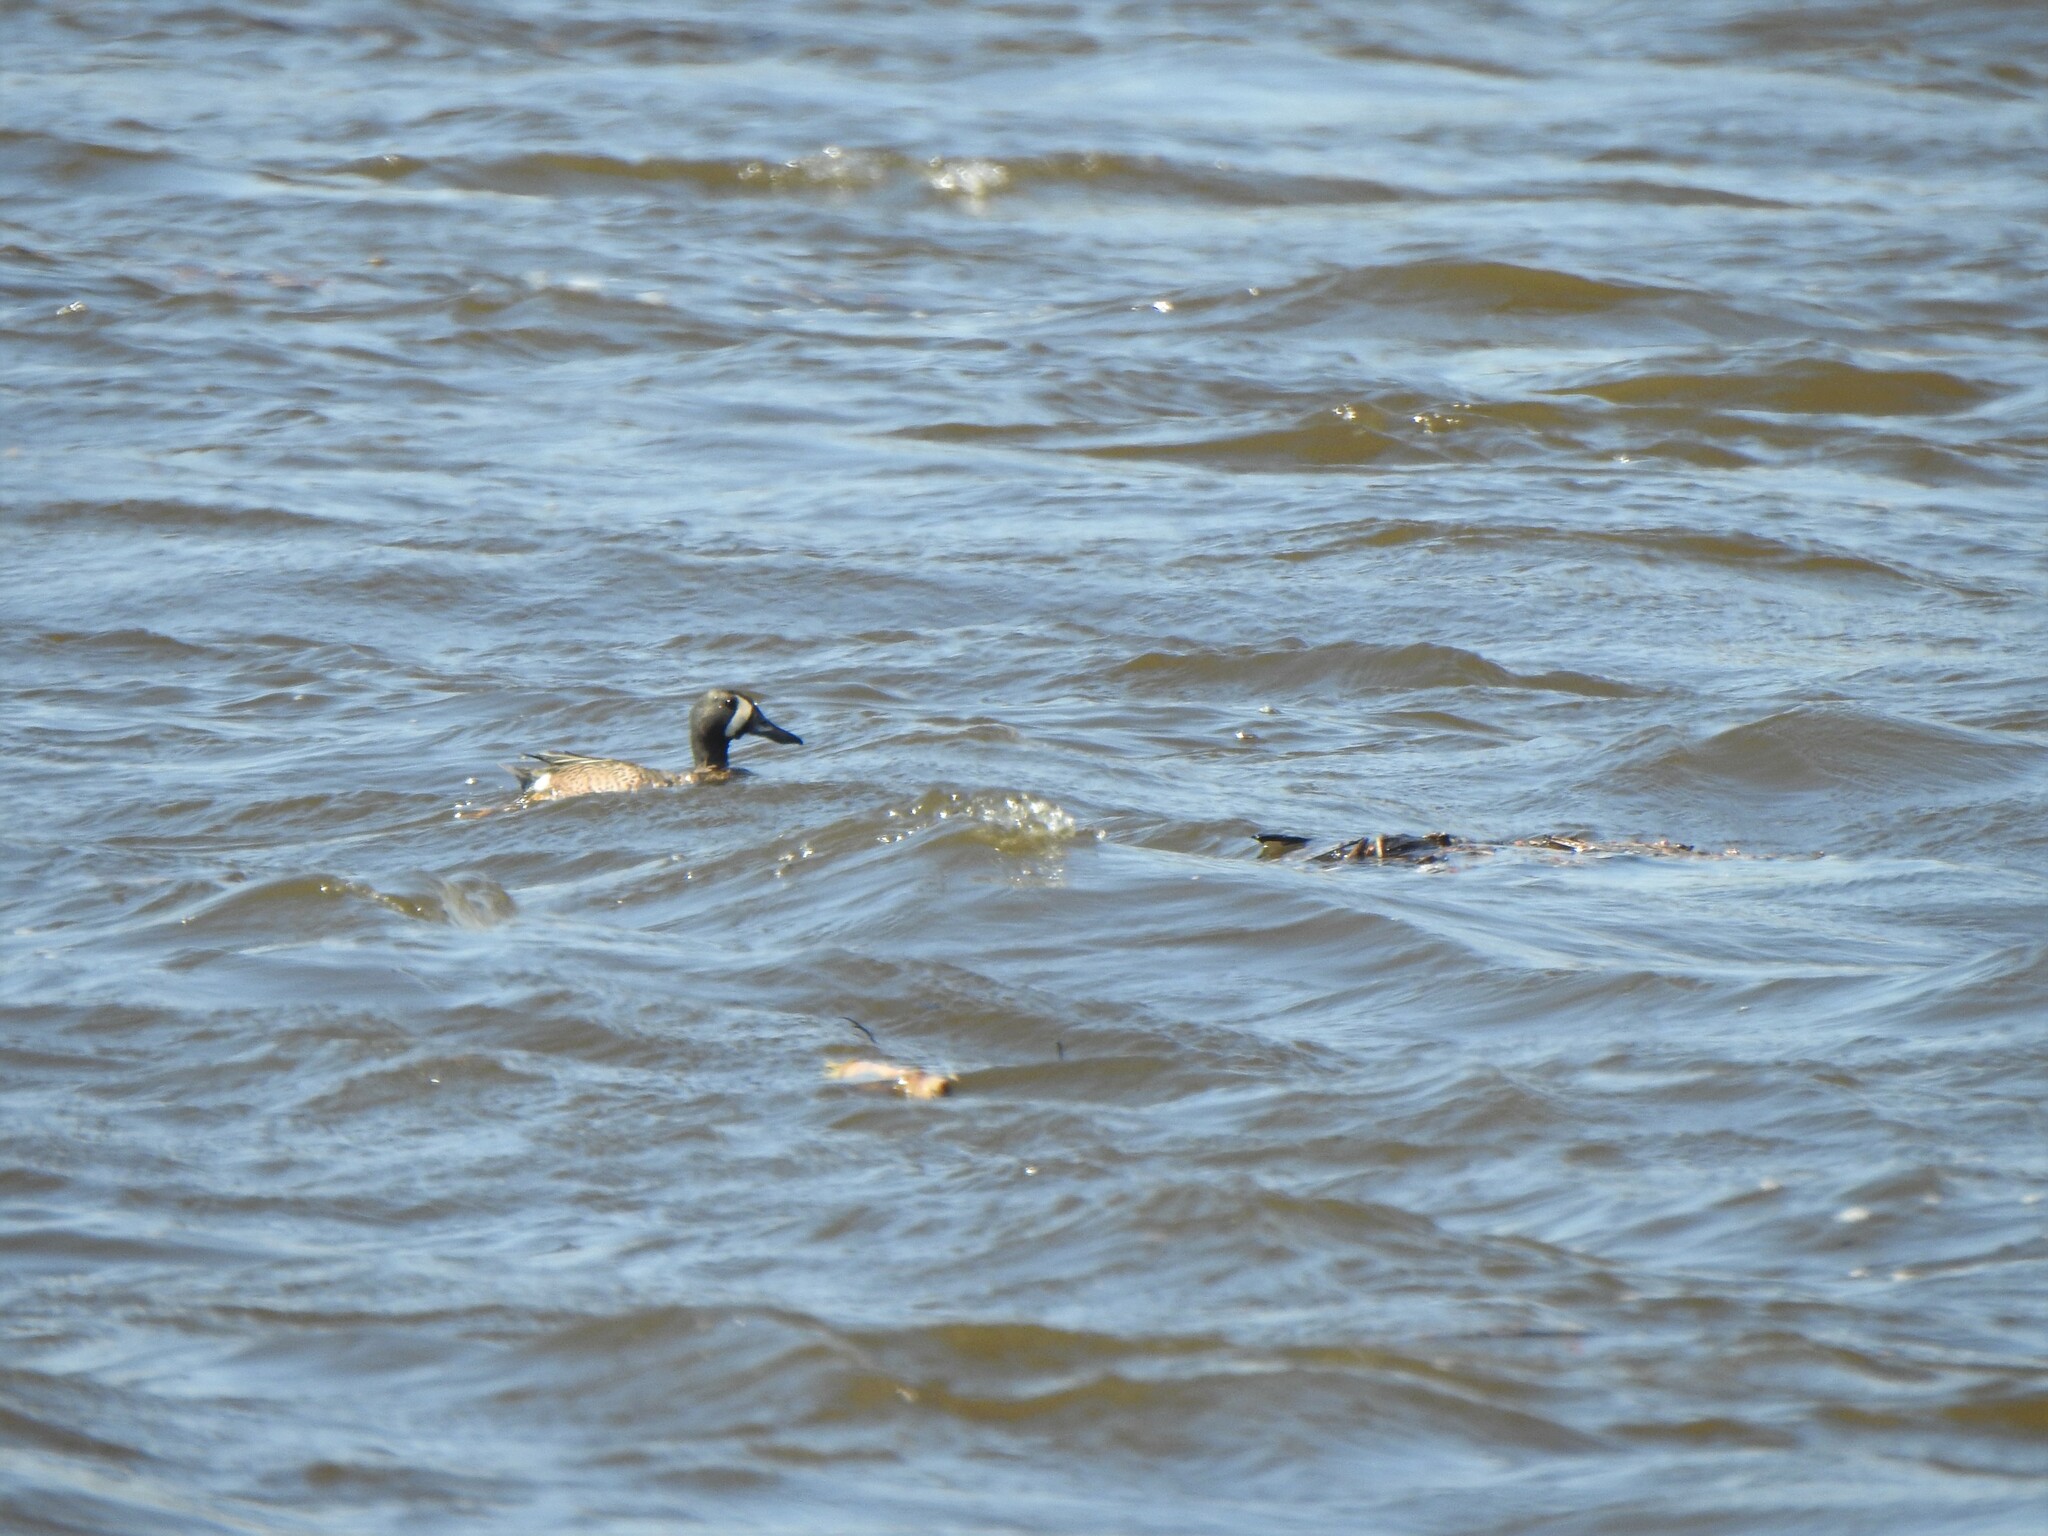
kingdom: Animalia
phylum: Chordata
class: Aves
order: Anseriformes
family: Anatidae
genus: Spatula
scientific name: Spatula discors
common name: Blue-winged teal
